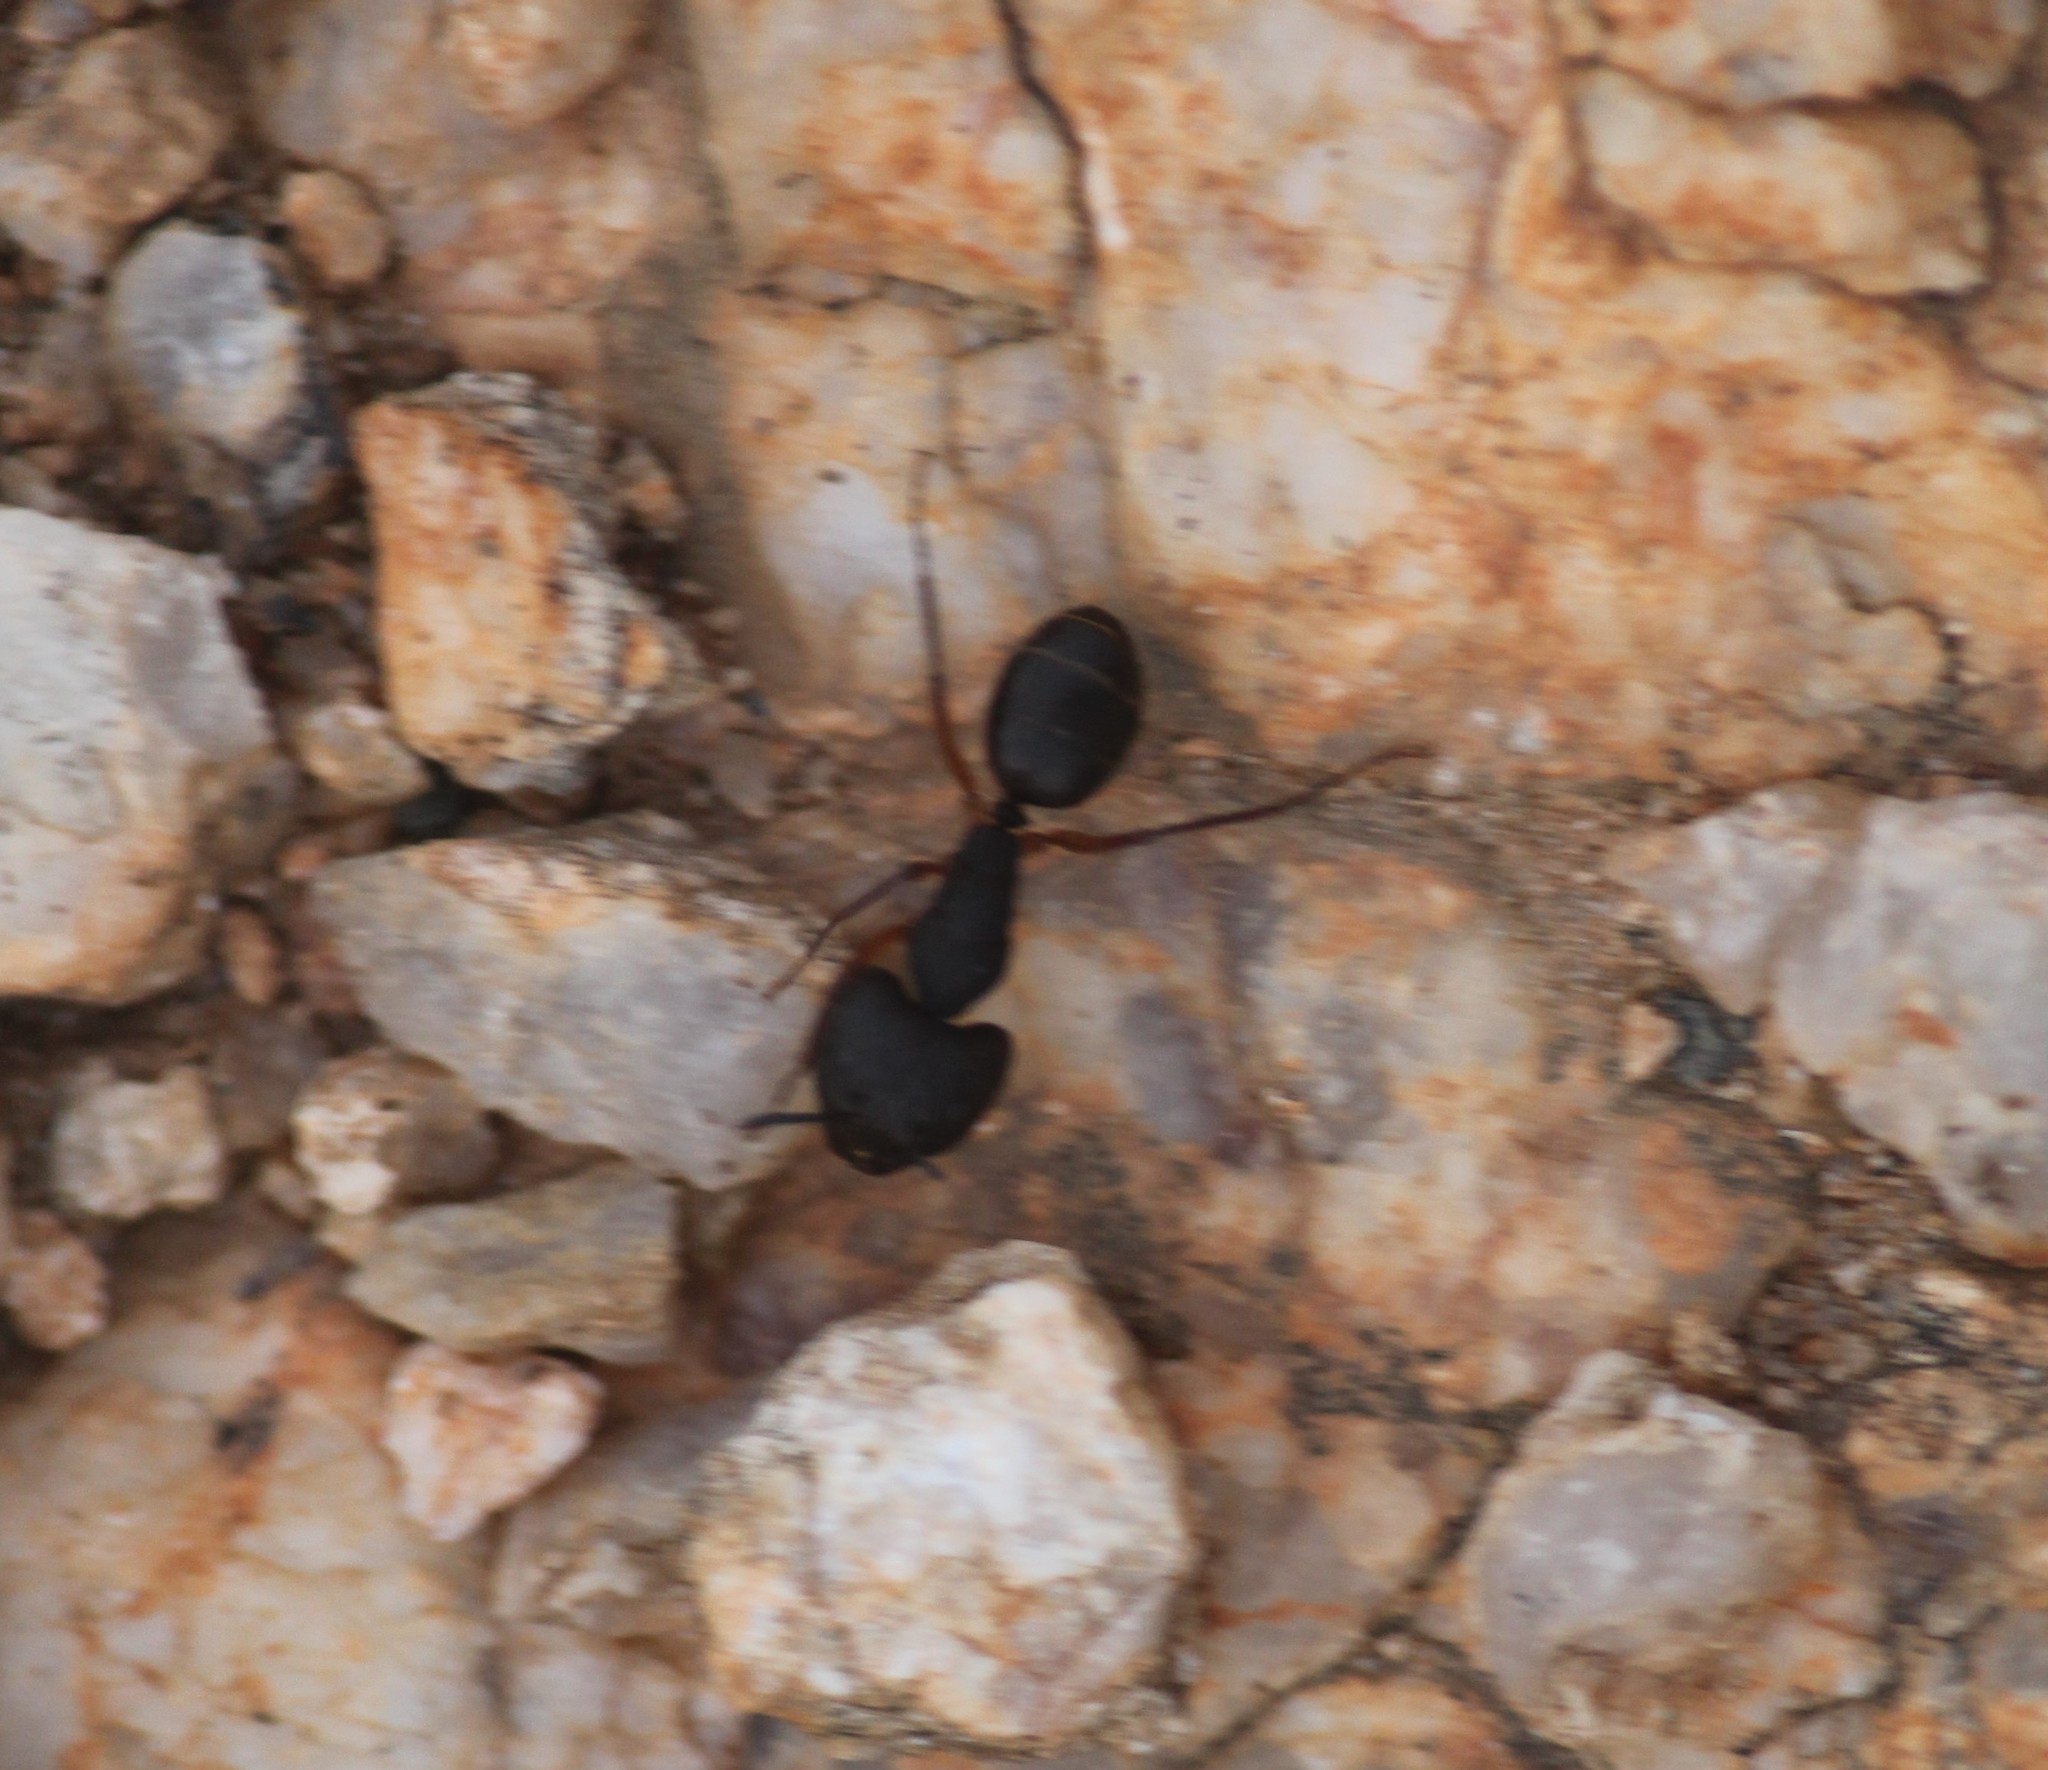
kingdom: Animalia
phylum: Arthropoda
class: Insecta
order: Hymenoptera
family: Formicidae
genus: Camponotus
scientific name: Camponotus compressus
